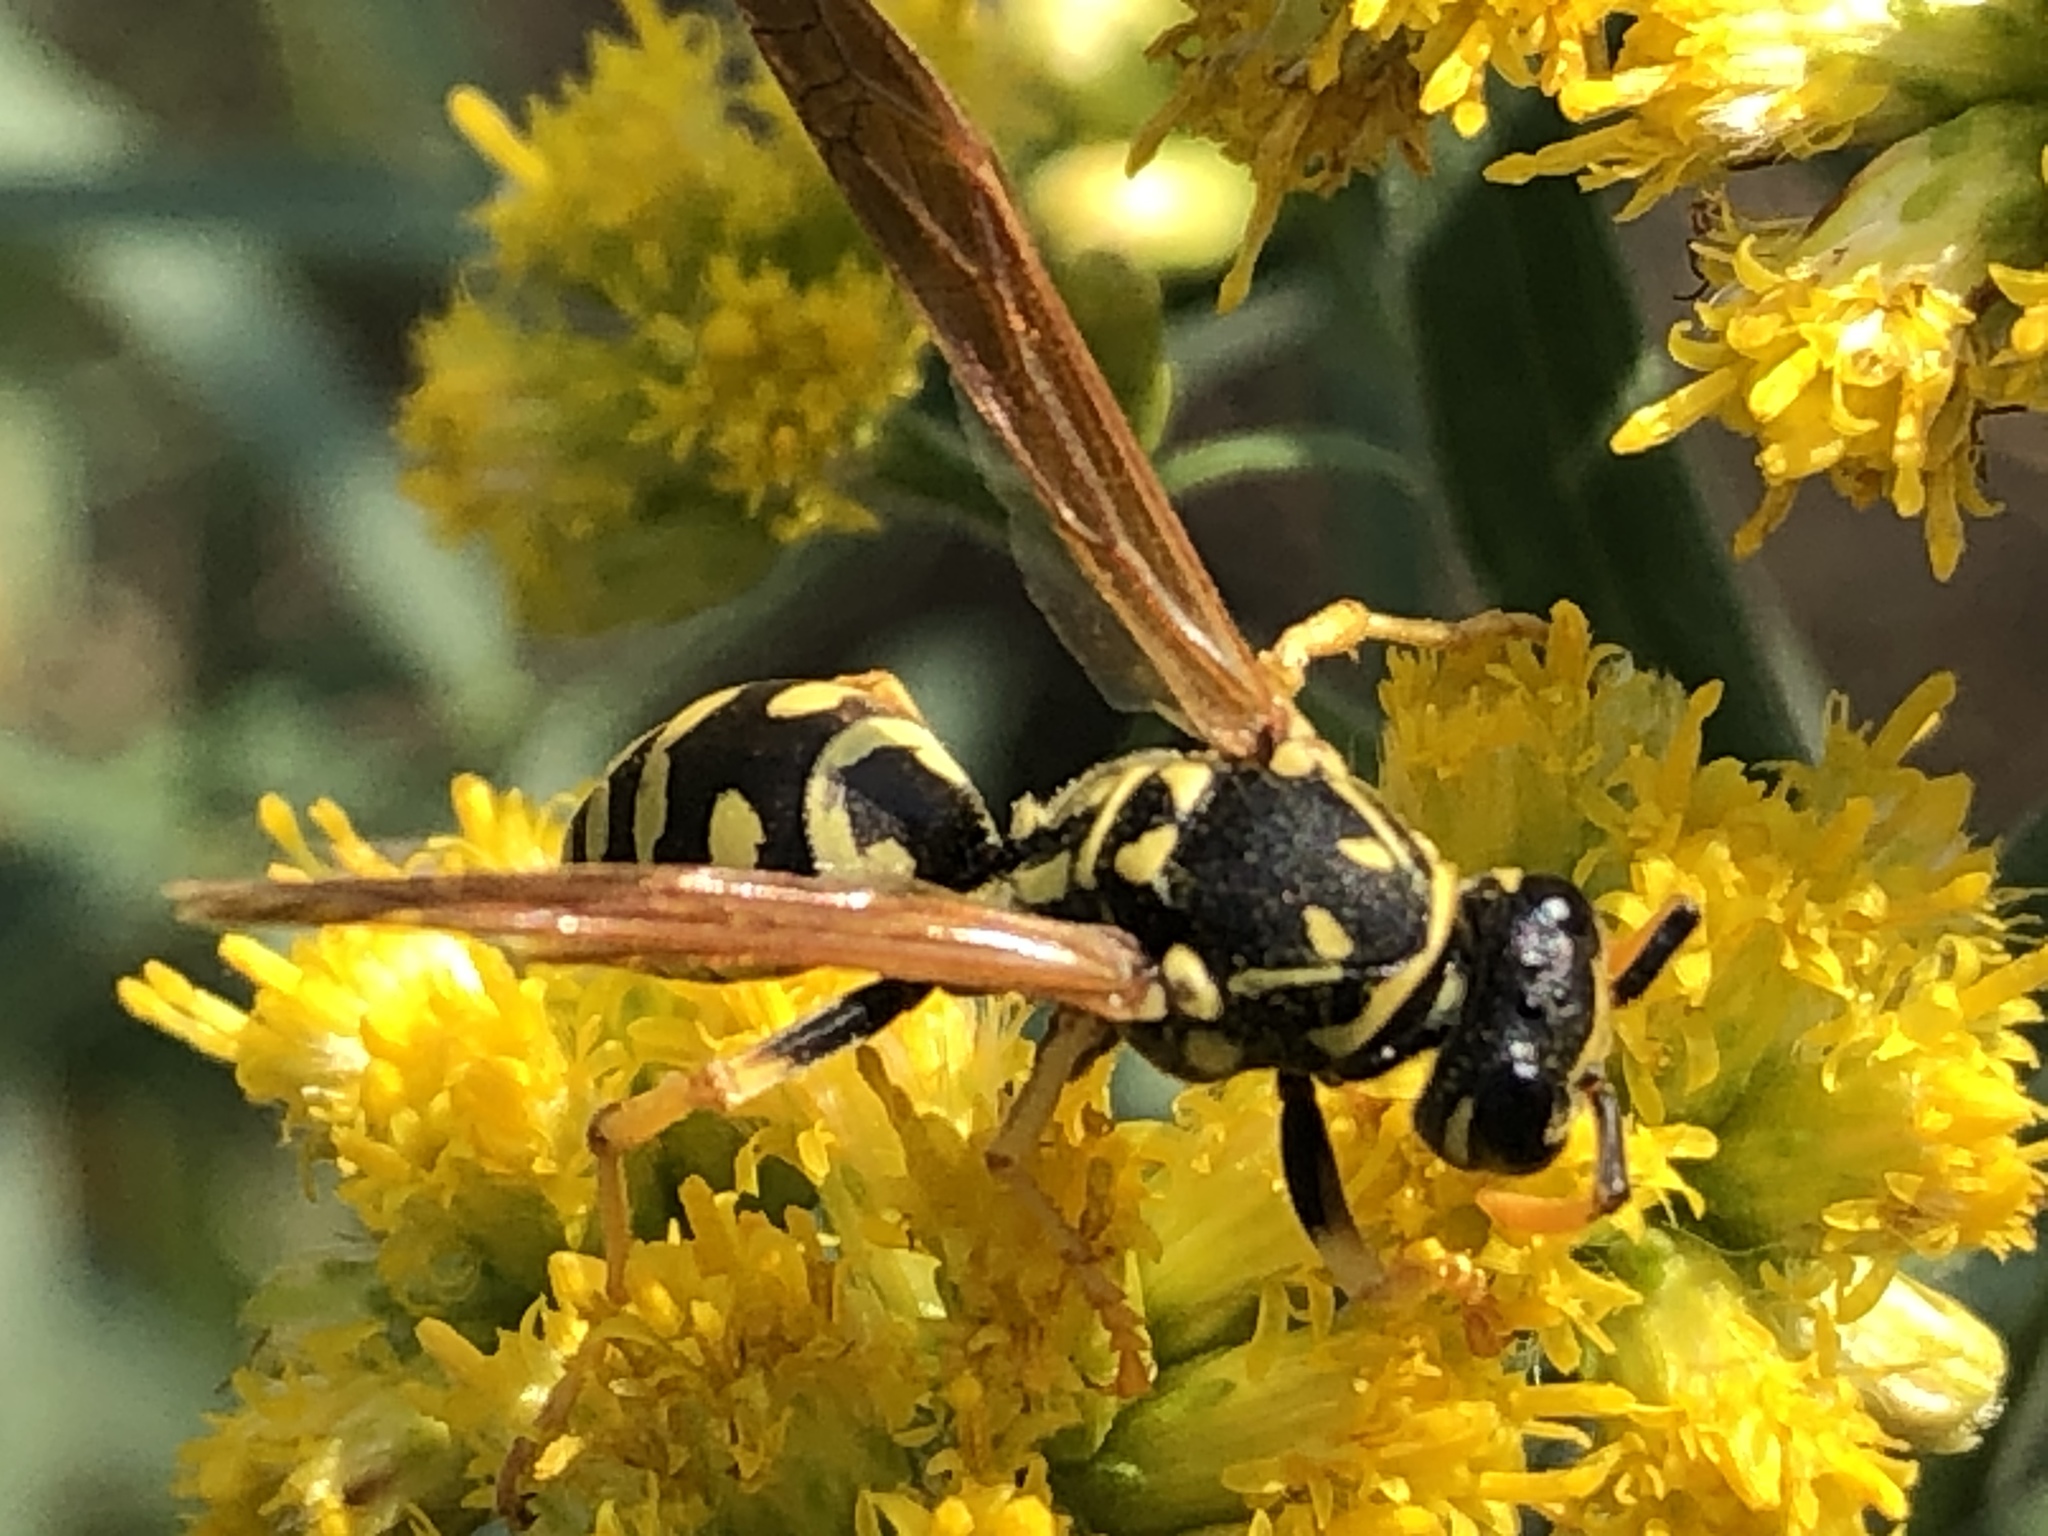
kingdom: Animalia
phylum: Arthropoda
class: Insecta
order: Hymenoptera
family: Eumenidae
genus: Polistes
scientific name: Polistes dominula
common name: Paper wasp
